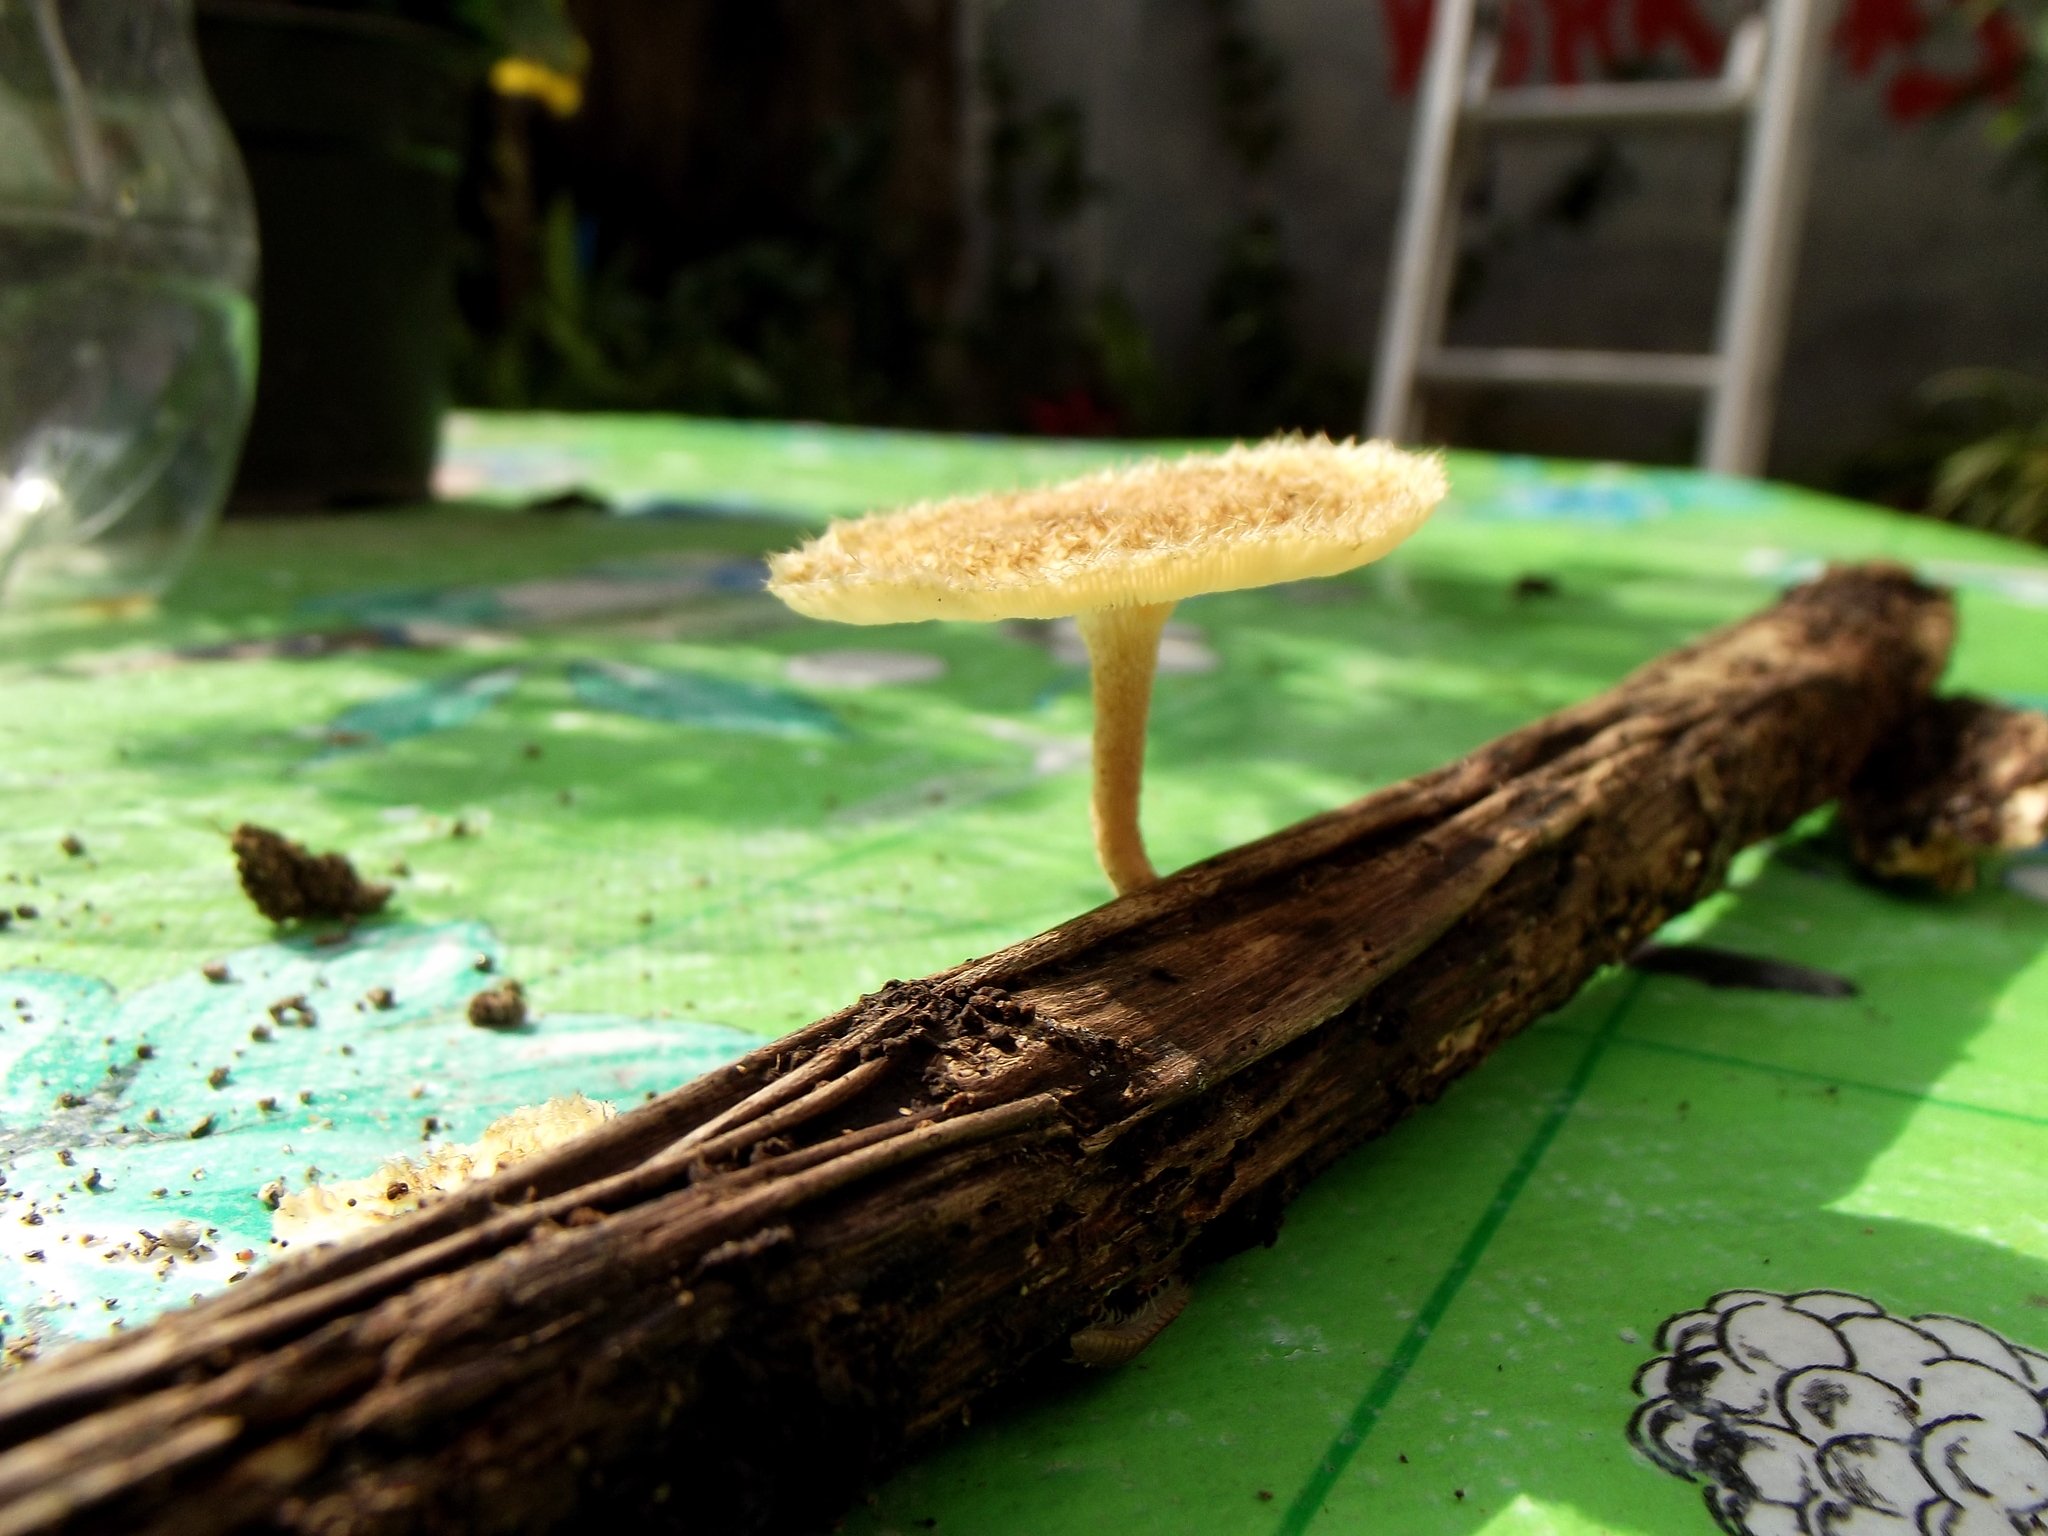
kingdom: Fungi
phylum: Basidiomycota
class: Agaricomycetes
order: Polyporales
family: Polyporaceae
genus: Lentinus
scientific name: Lentinus arcularius
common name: Spring polypore
